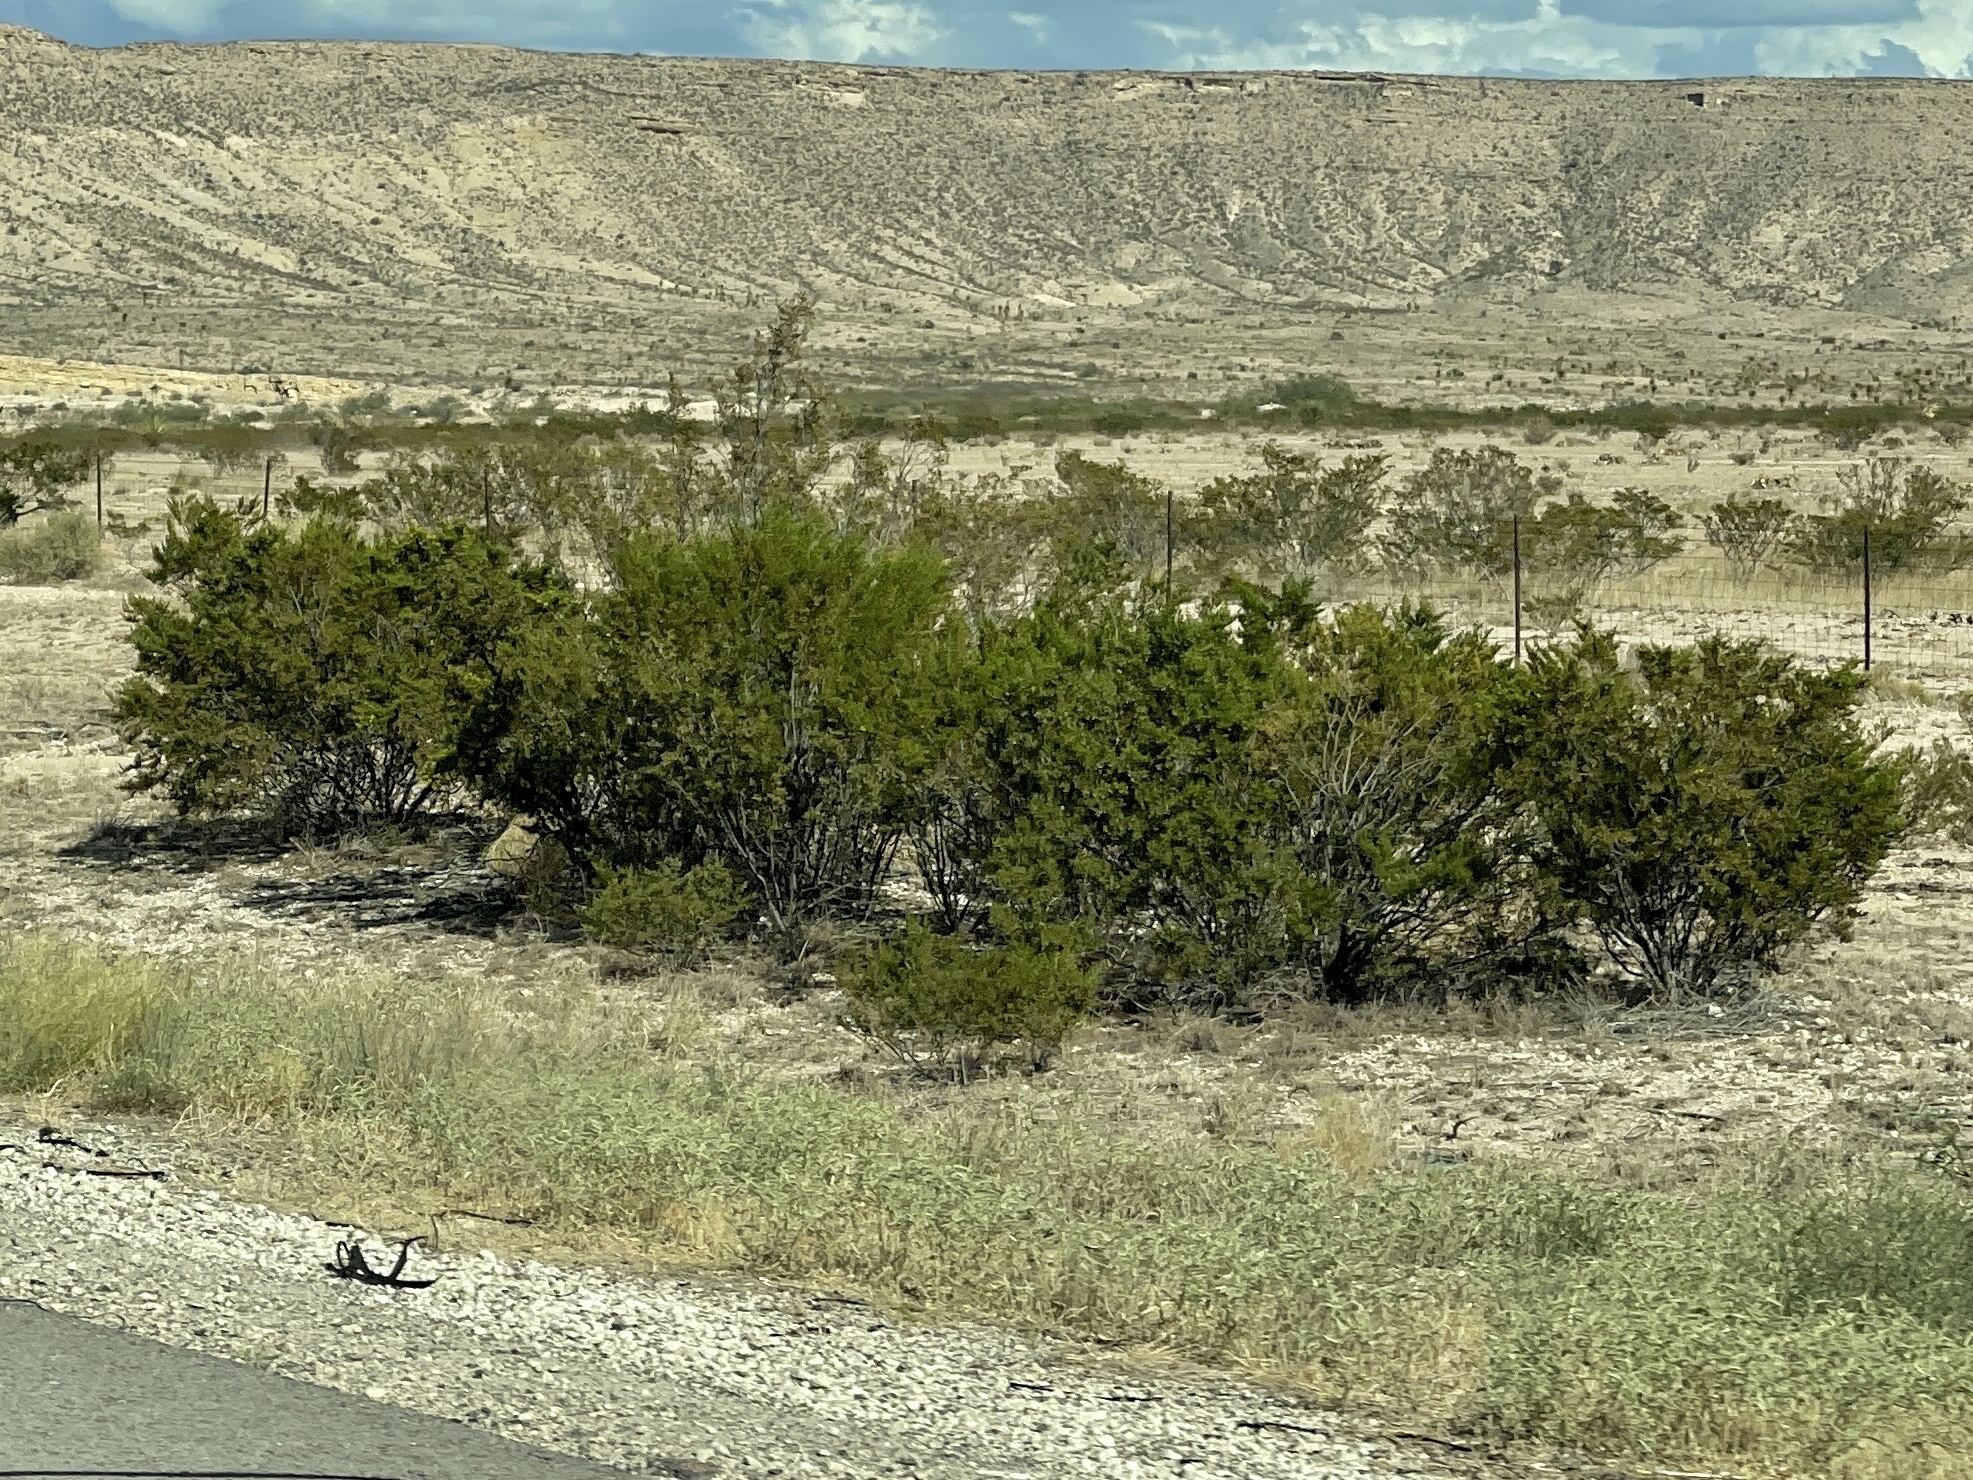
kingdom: Plantae
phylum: Tracheophyta
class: Magnoliopsida
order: Zygophyllales
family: Zygophyllaceae
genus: Larrea
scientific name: Larrea tridentata
